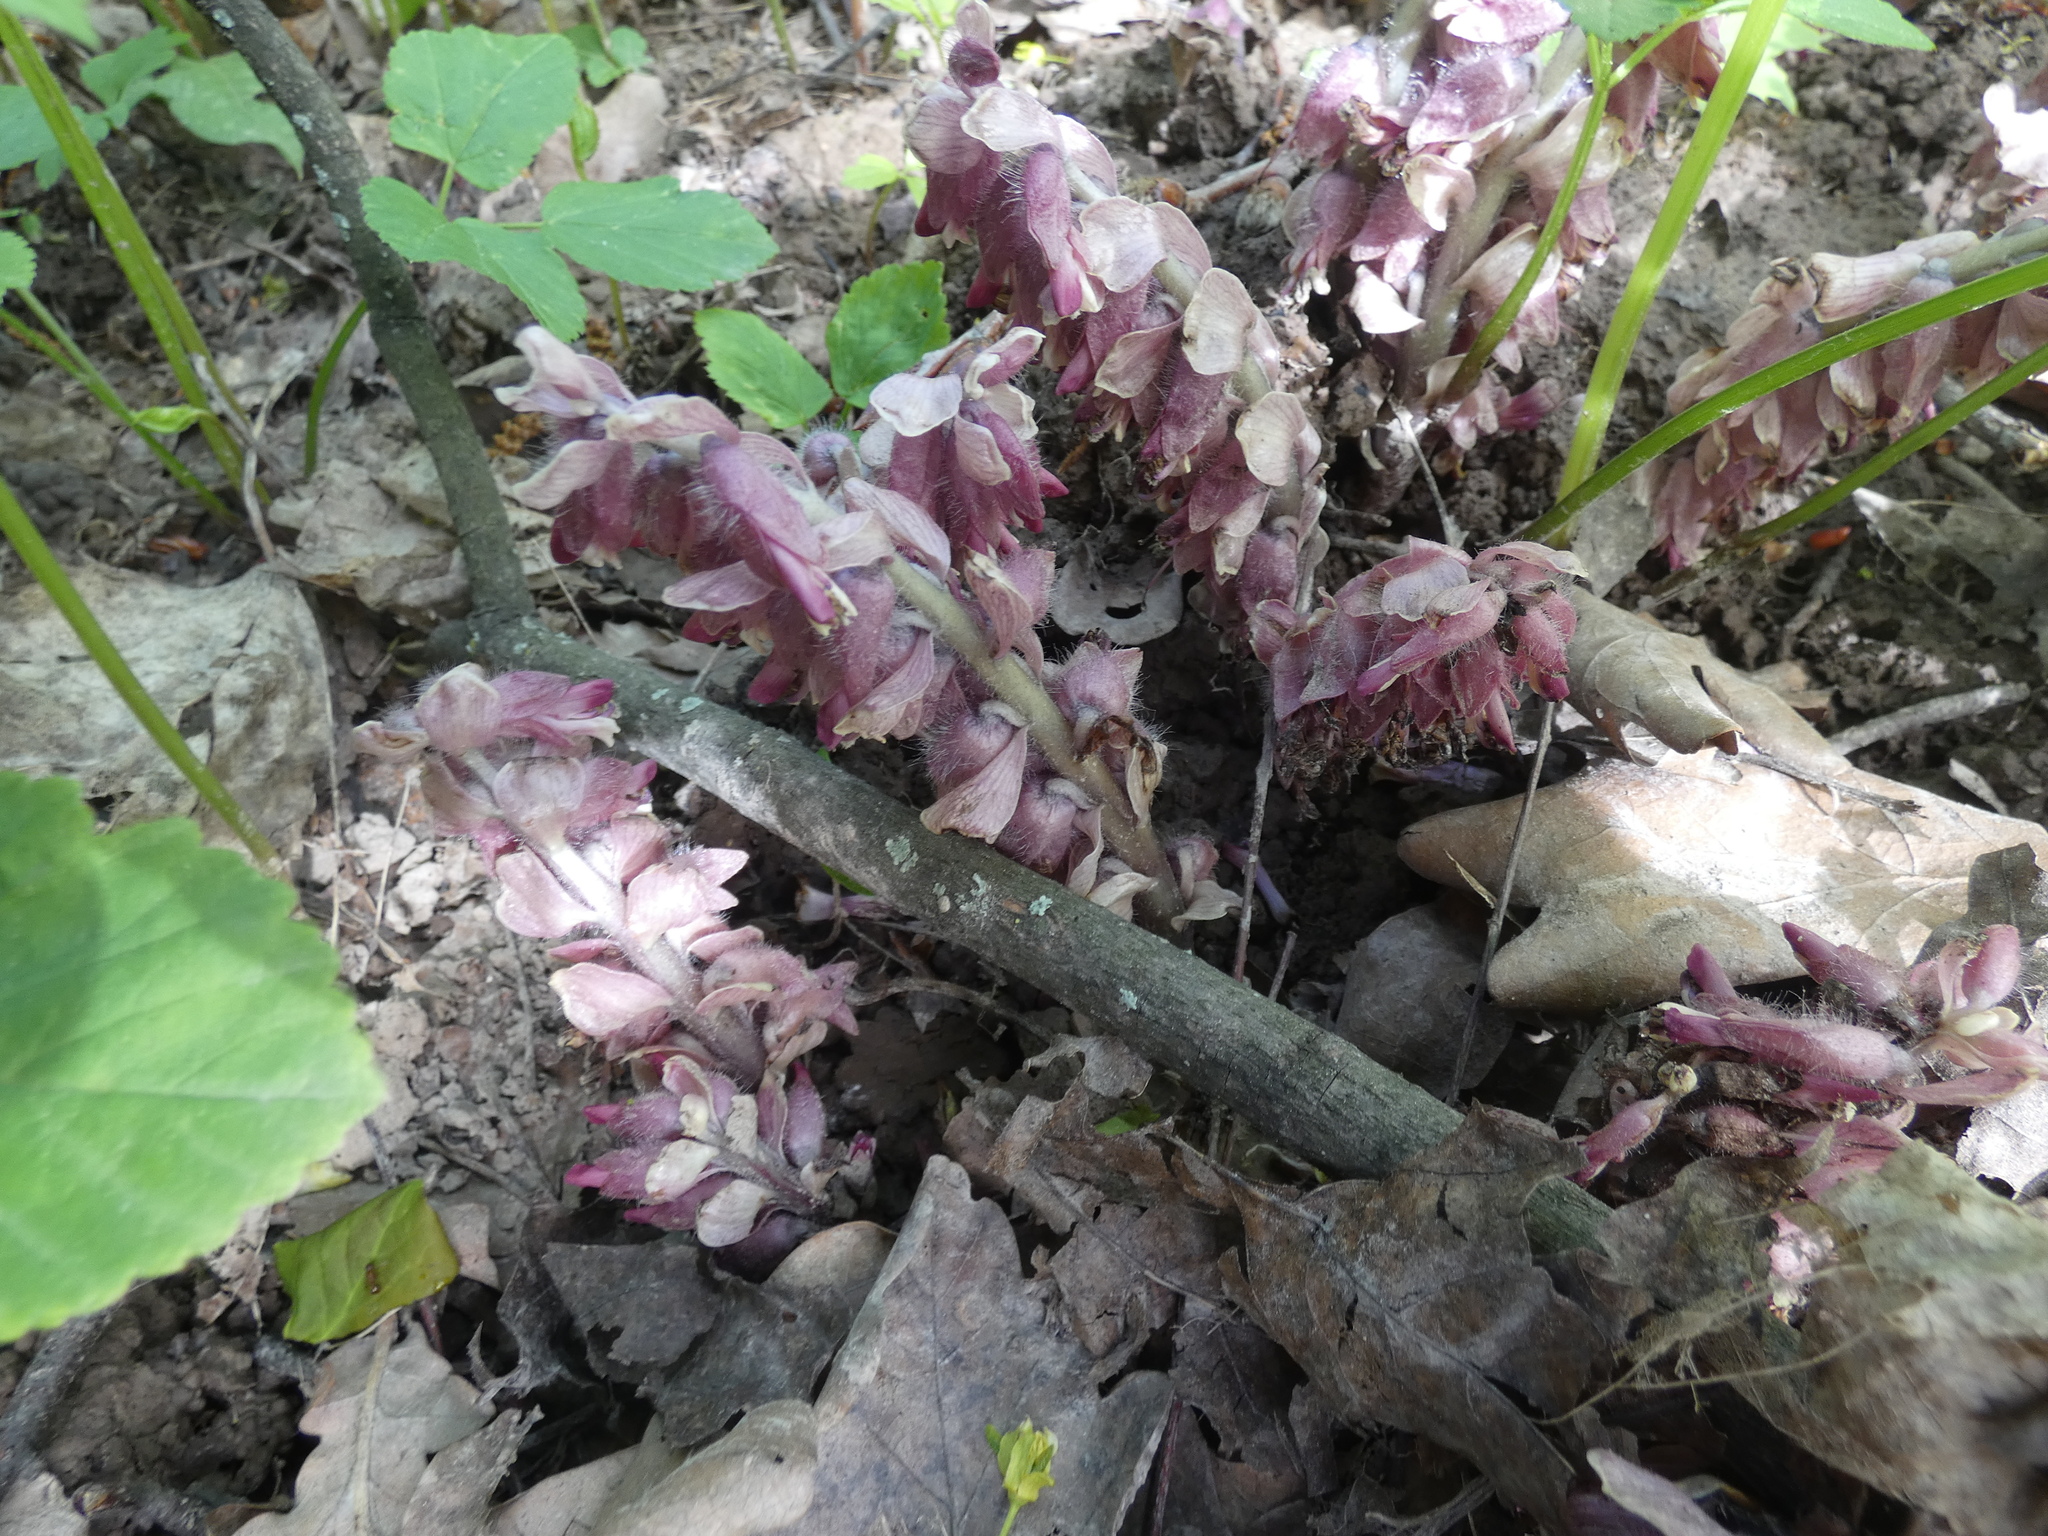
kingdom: Plantae
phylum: Tracheophyta
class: Magnoliopsida
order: Lamiales
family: Orobanchaceae
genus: Lathraea
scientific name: Lathraea squamaria
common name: Toothwort
